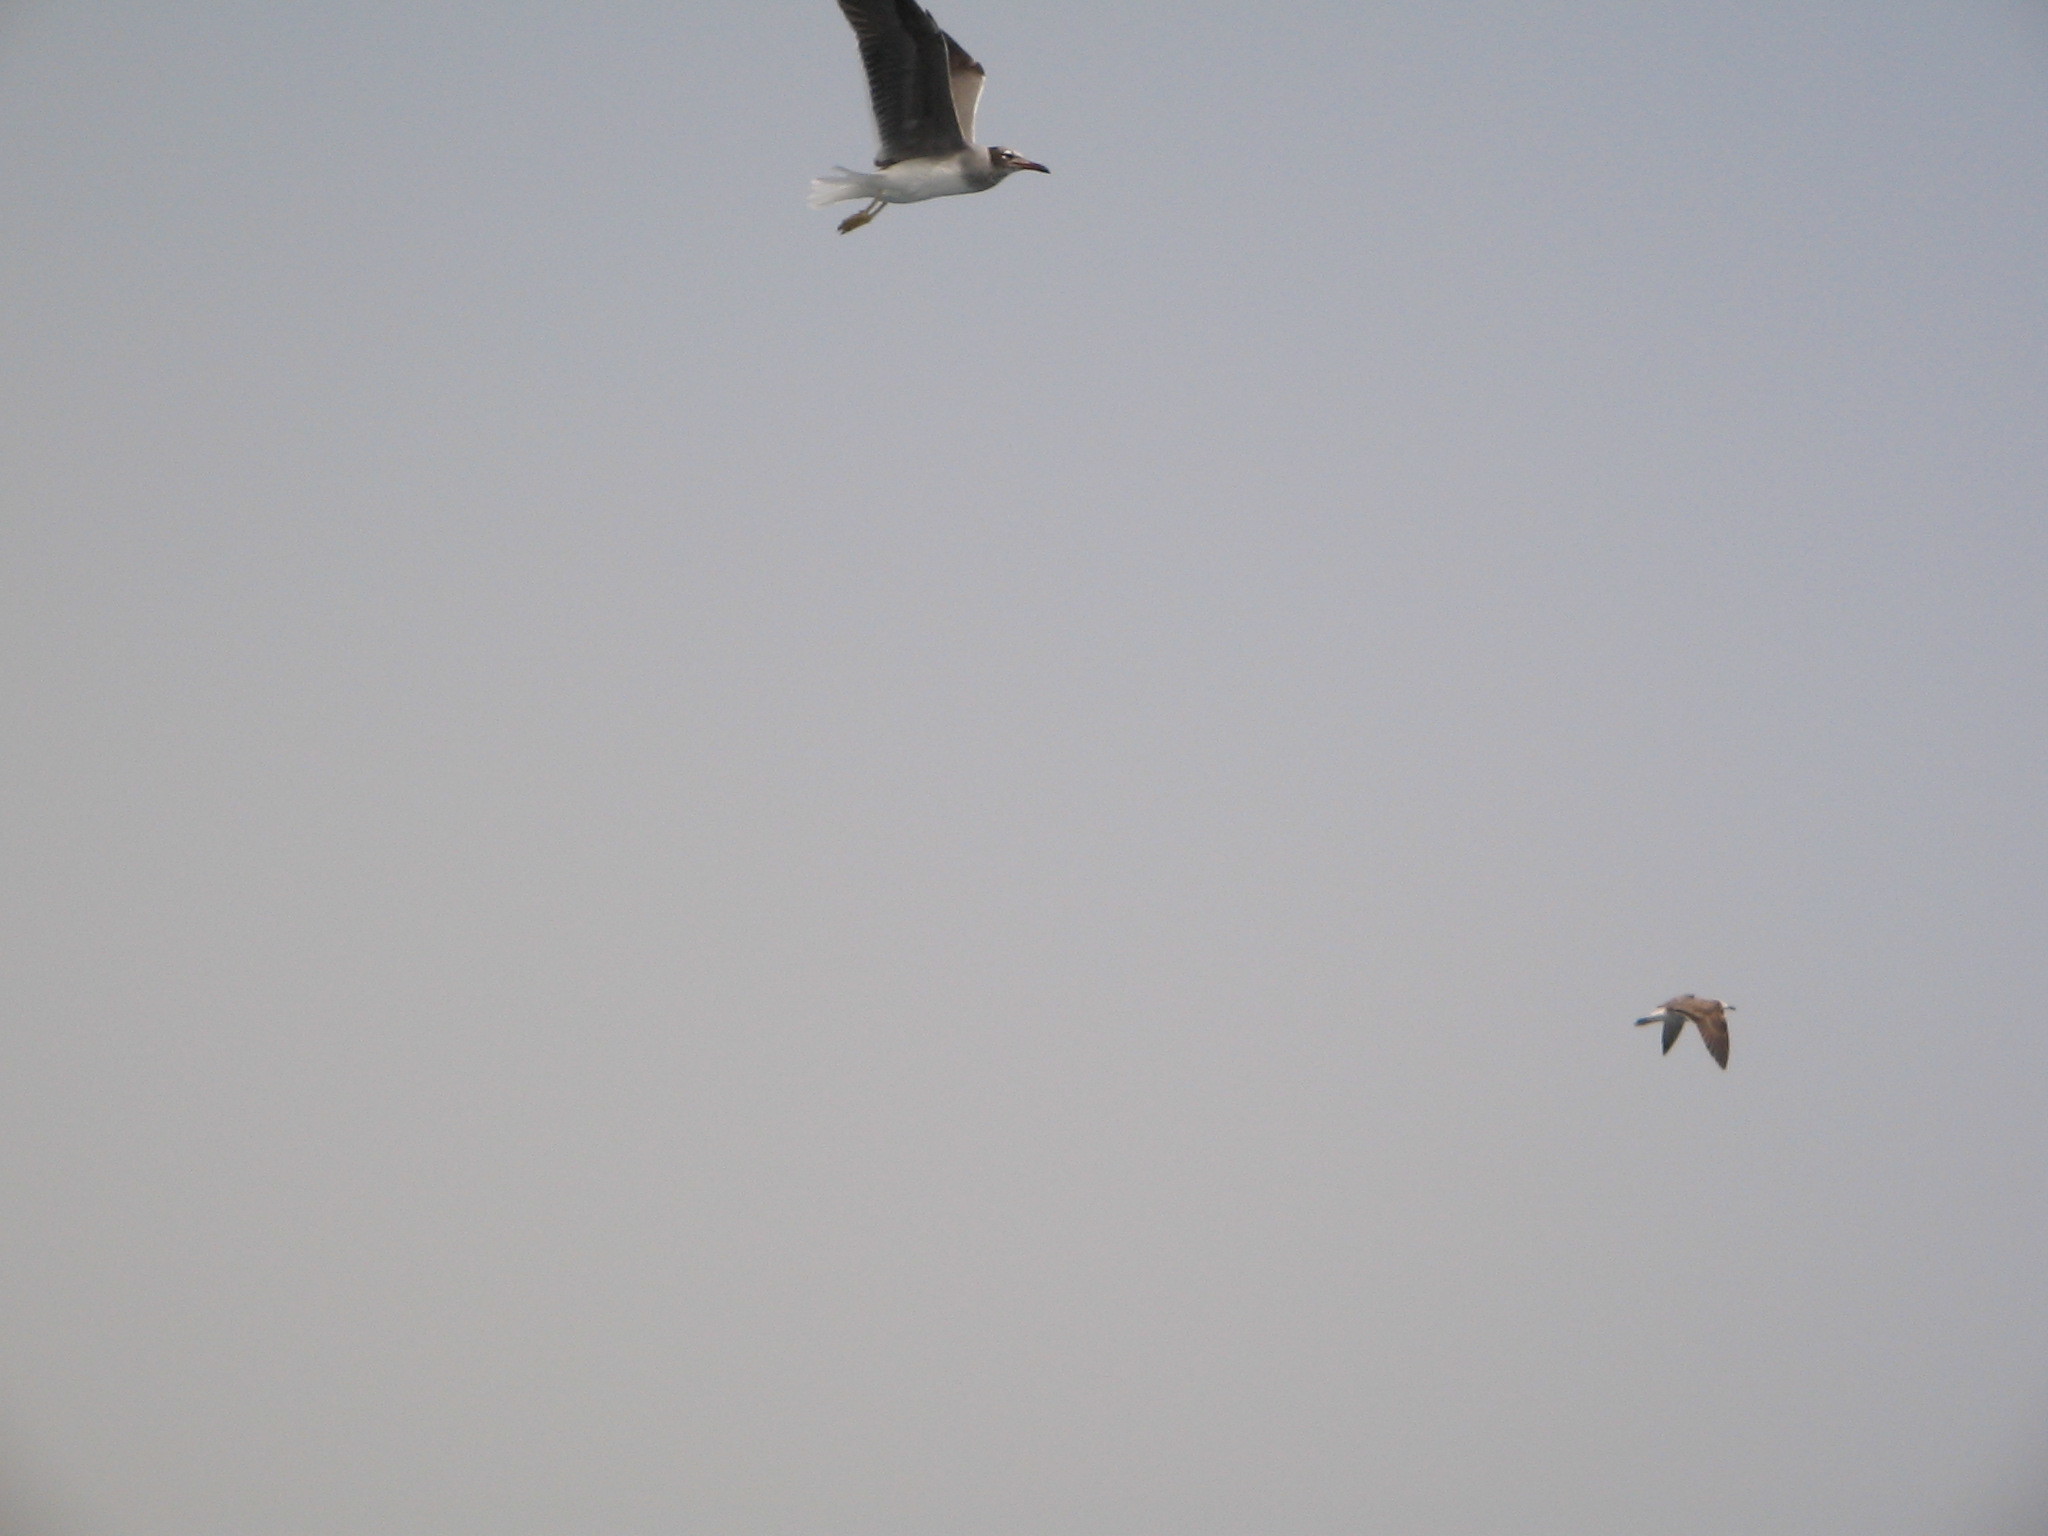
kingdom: Animalia
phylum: Chordata
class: Aves
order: Charadriiformes
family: Laridae
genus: Ichthyaetus
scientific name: Ichthyaetus leucophthalmus
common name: White-eyed gull
